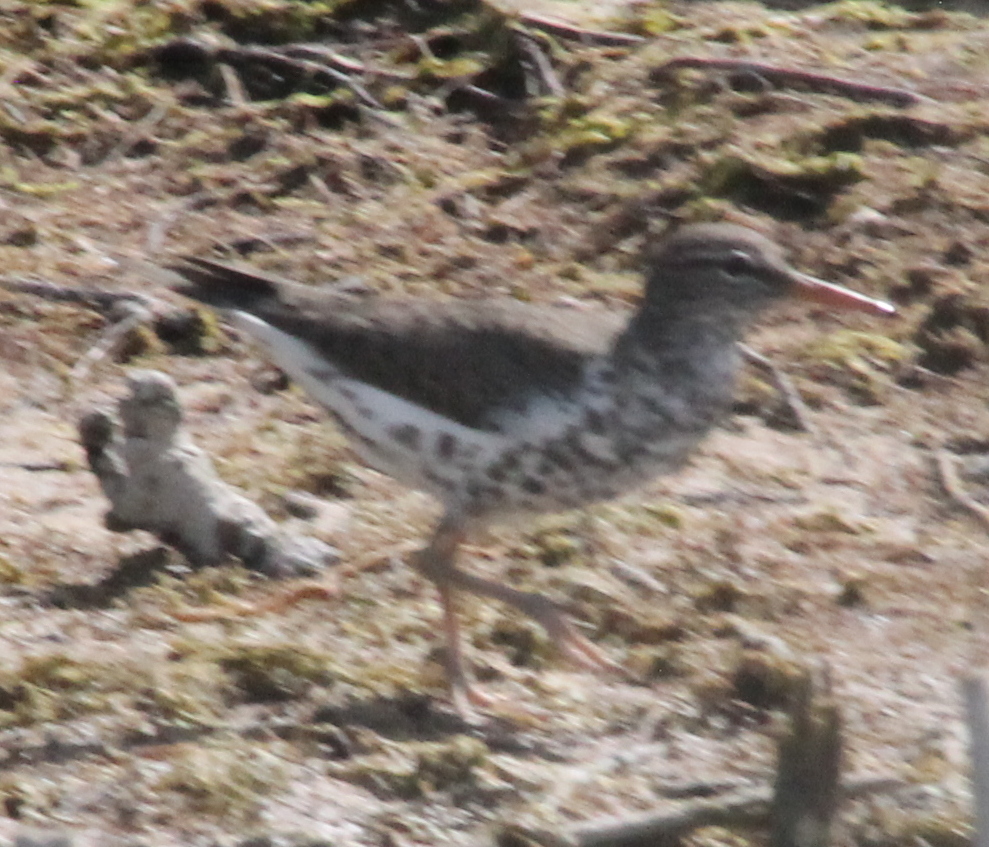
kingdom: Animalia
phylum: Chordata
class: Aves
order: Charadriiformes
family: Scolopacidae
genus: Actitis
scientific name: Actitis macularius
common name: Spotted sandpiper
